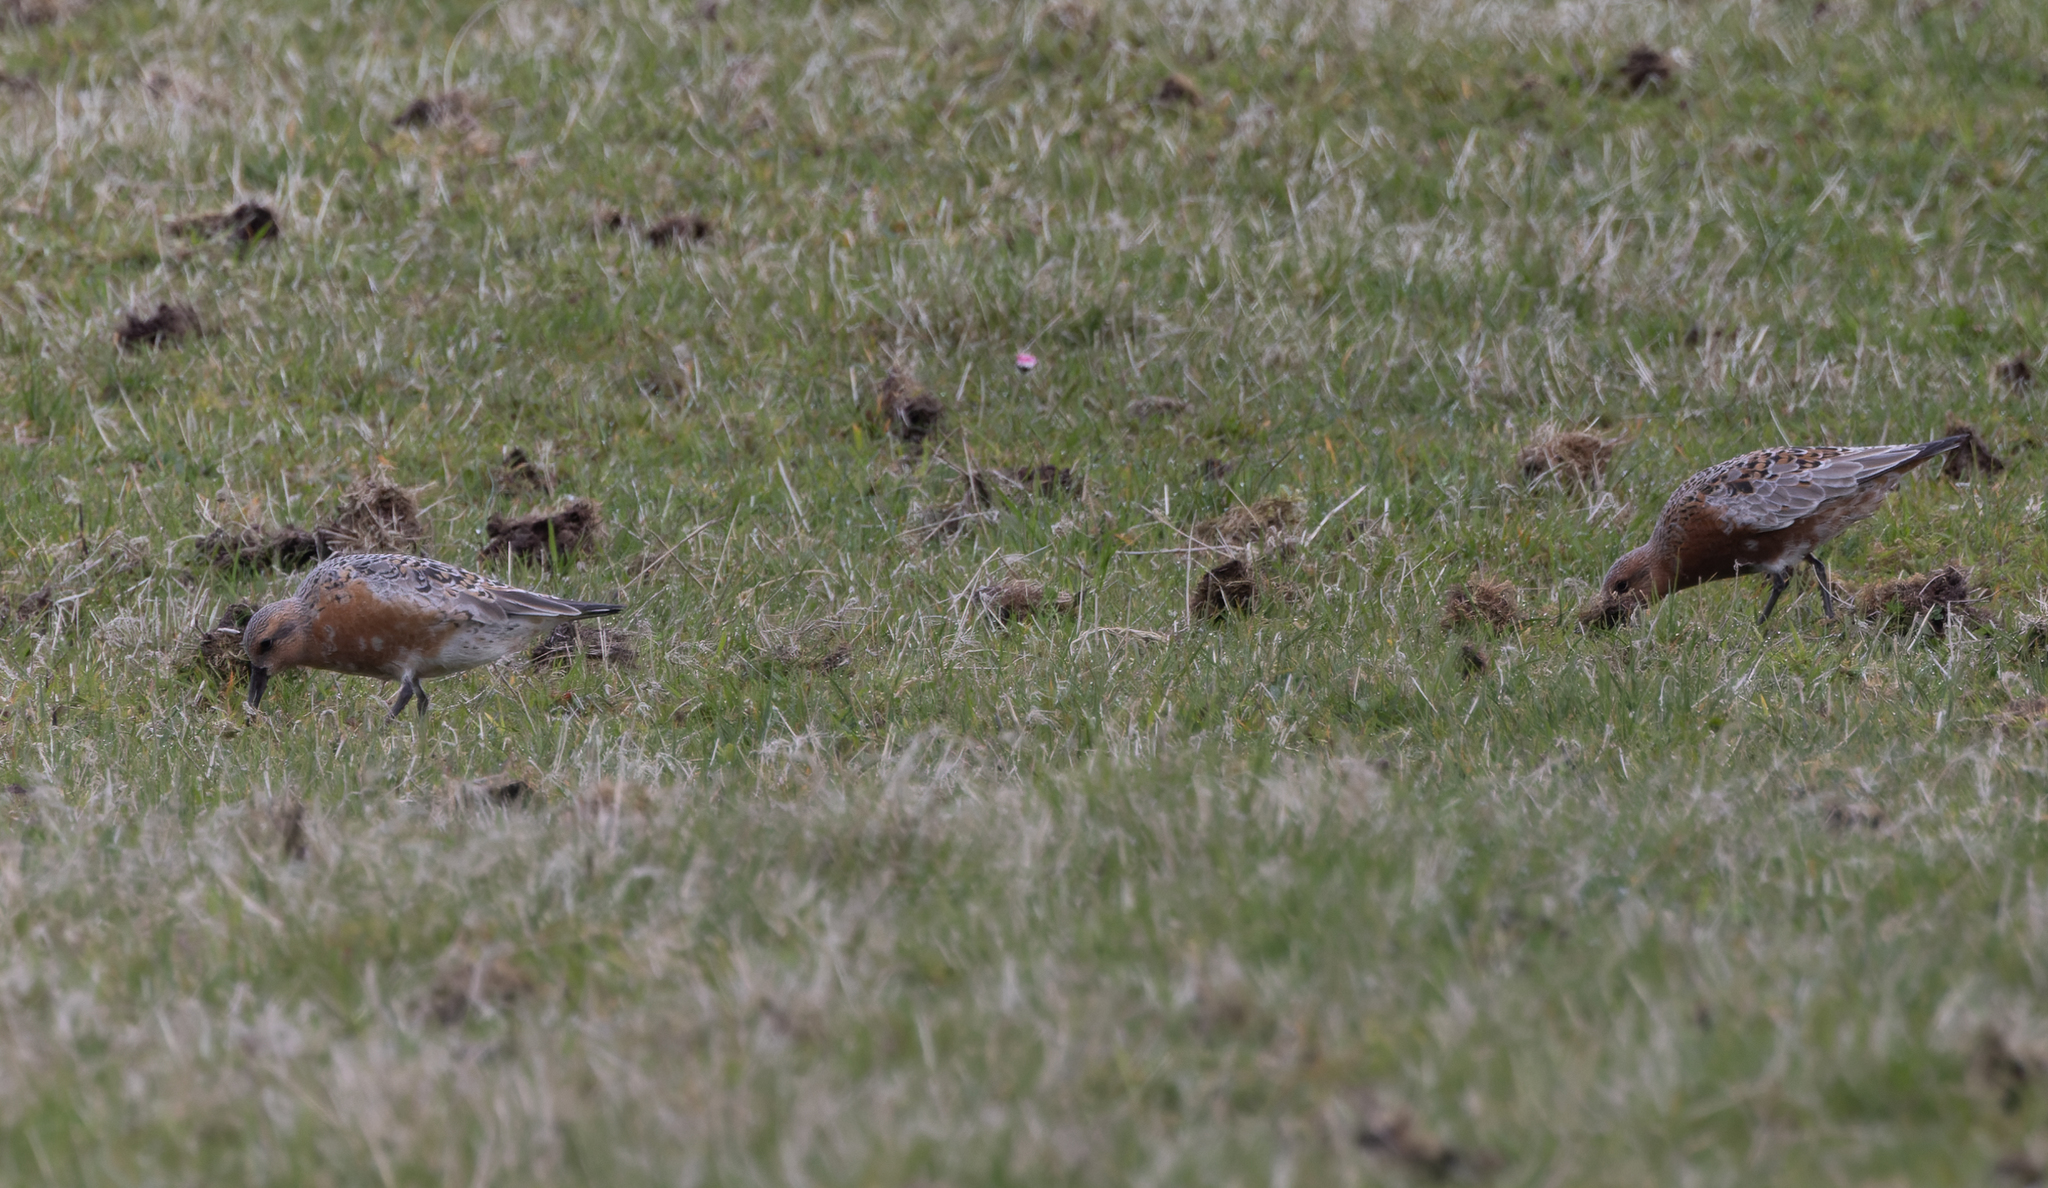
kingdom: Animalia
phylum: Chordata
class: Aves
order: Charadriiformes
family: Scolopacidae
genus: Calidris
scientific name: Calidris canutus
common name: Red knot
